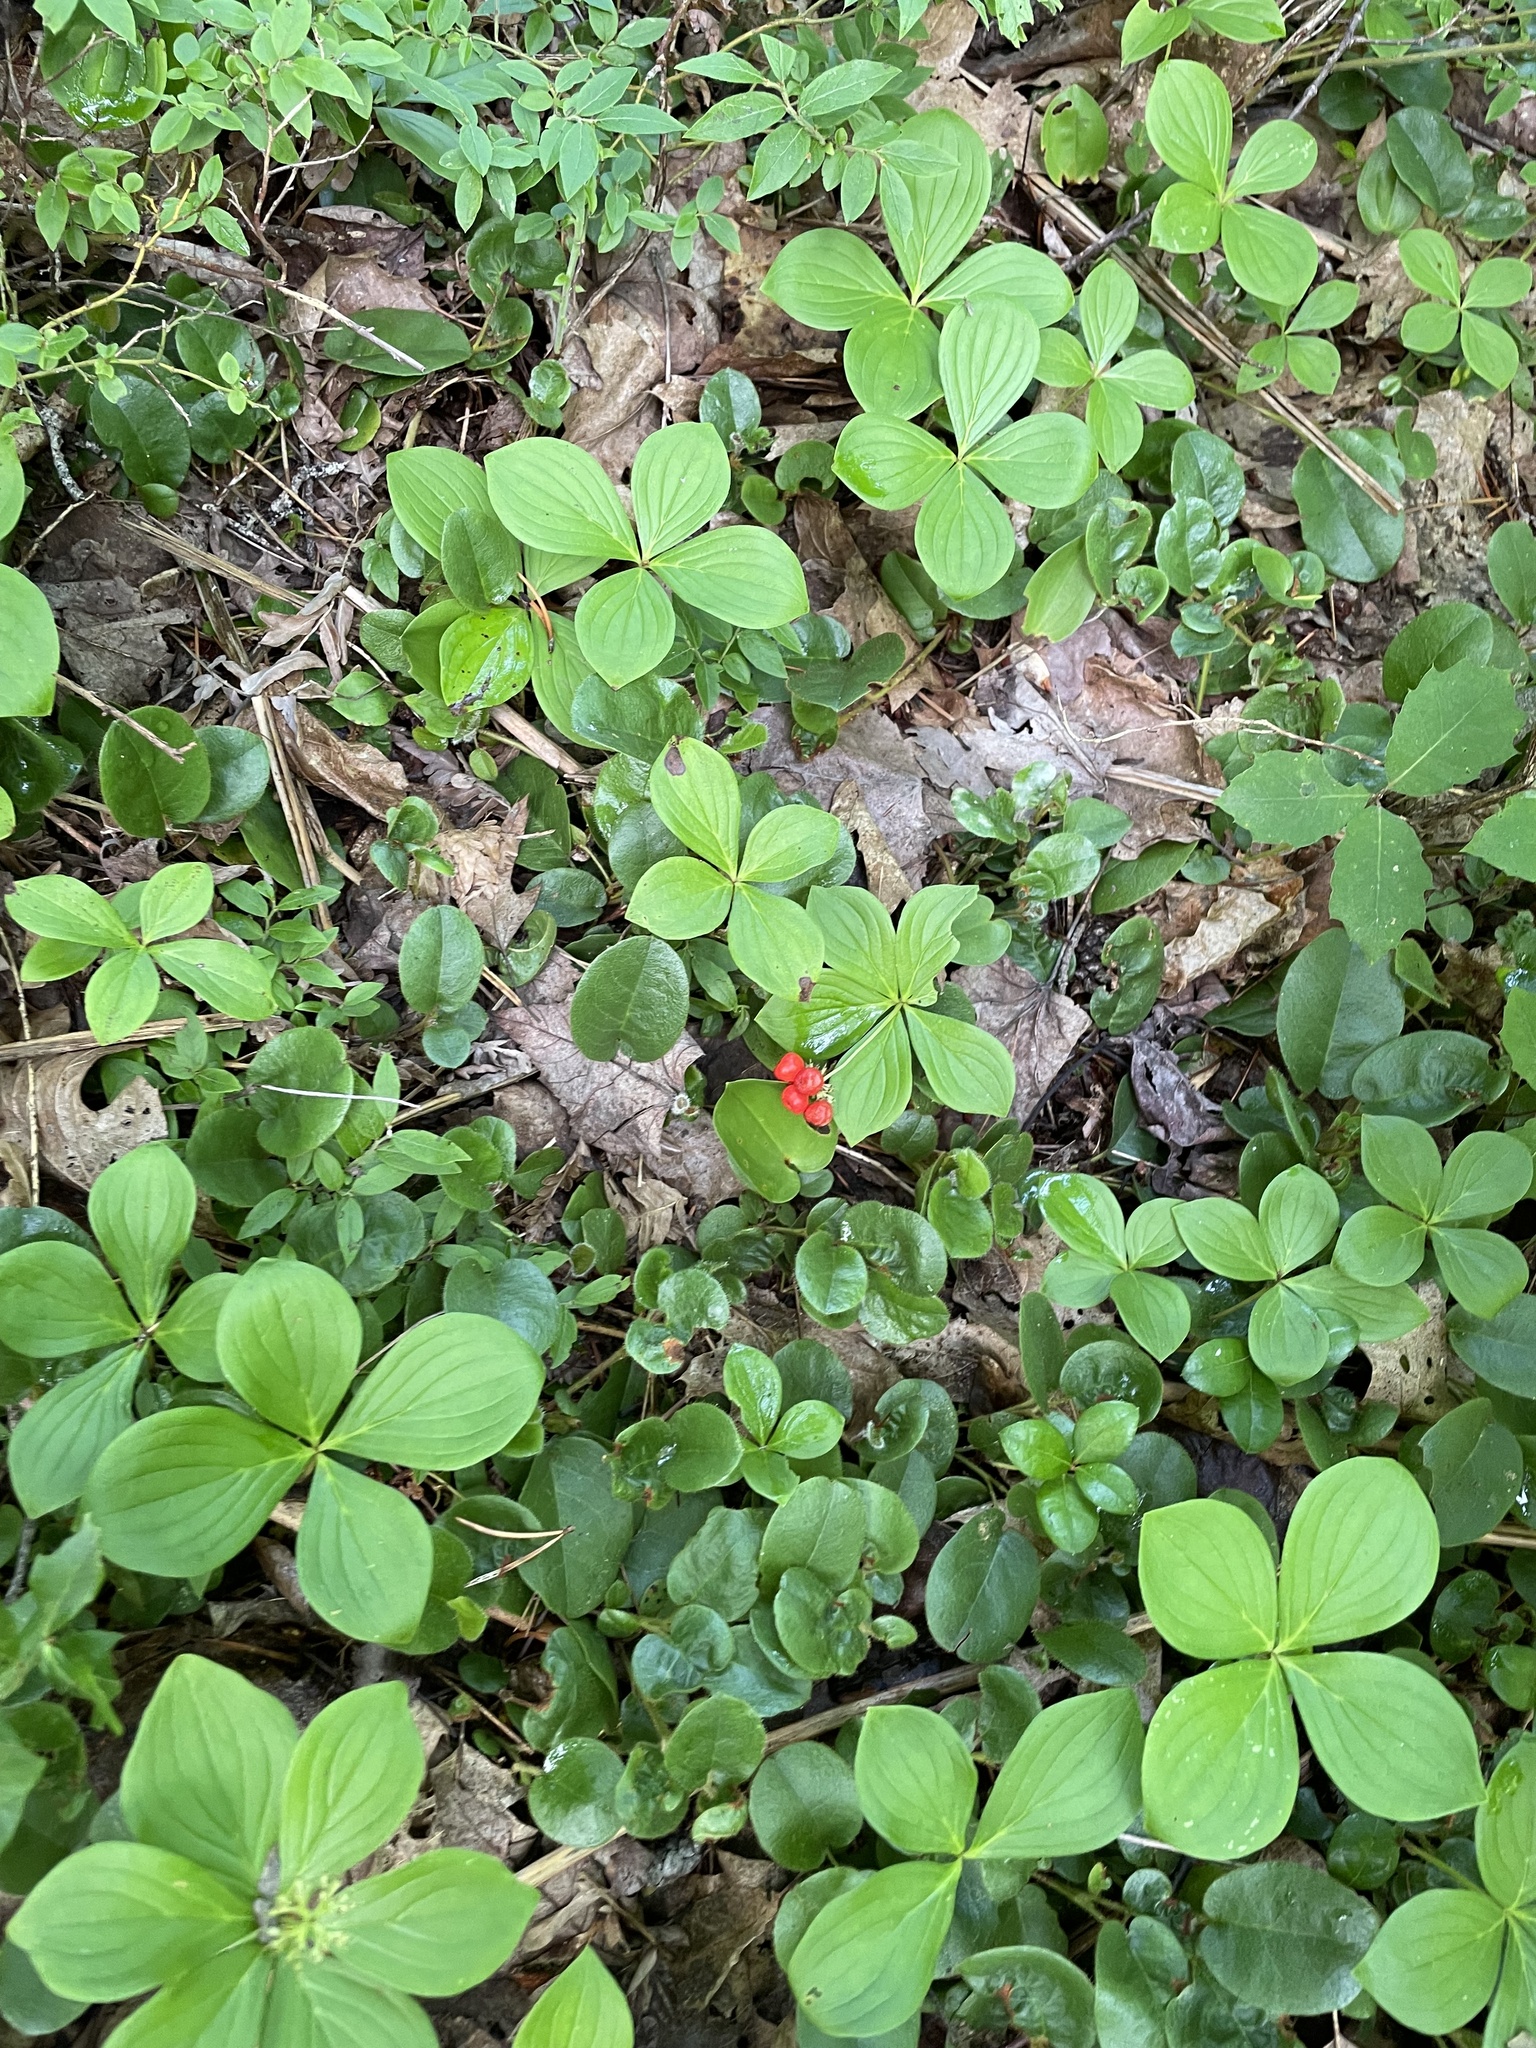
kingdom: Plantae
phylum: Tracheophyta
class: Magnoliopsida
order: Cornales
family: Cornaceae
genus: Cornus
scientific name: Cornus canadensis
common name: Creeping dogwood
